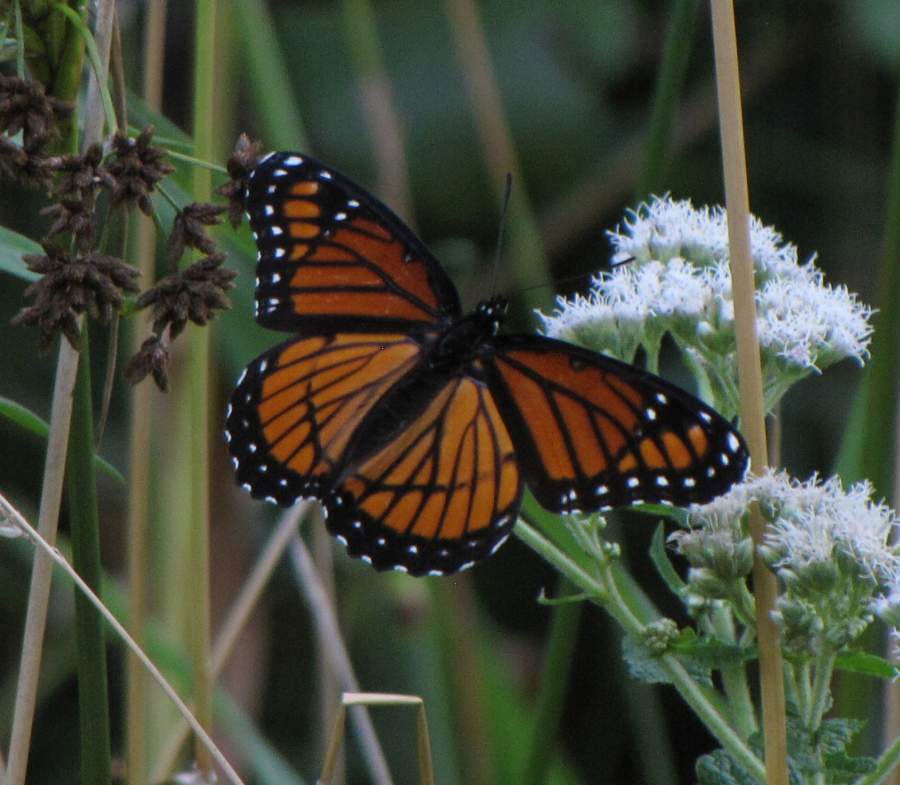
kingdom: Animalia
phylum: Arthropoda
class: Insecta
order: Lepidoptera
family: Nymphalidae
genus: Limenitis
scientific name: Limenitis archippus
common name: Viceroy
